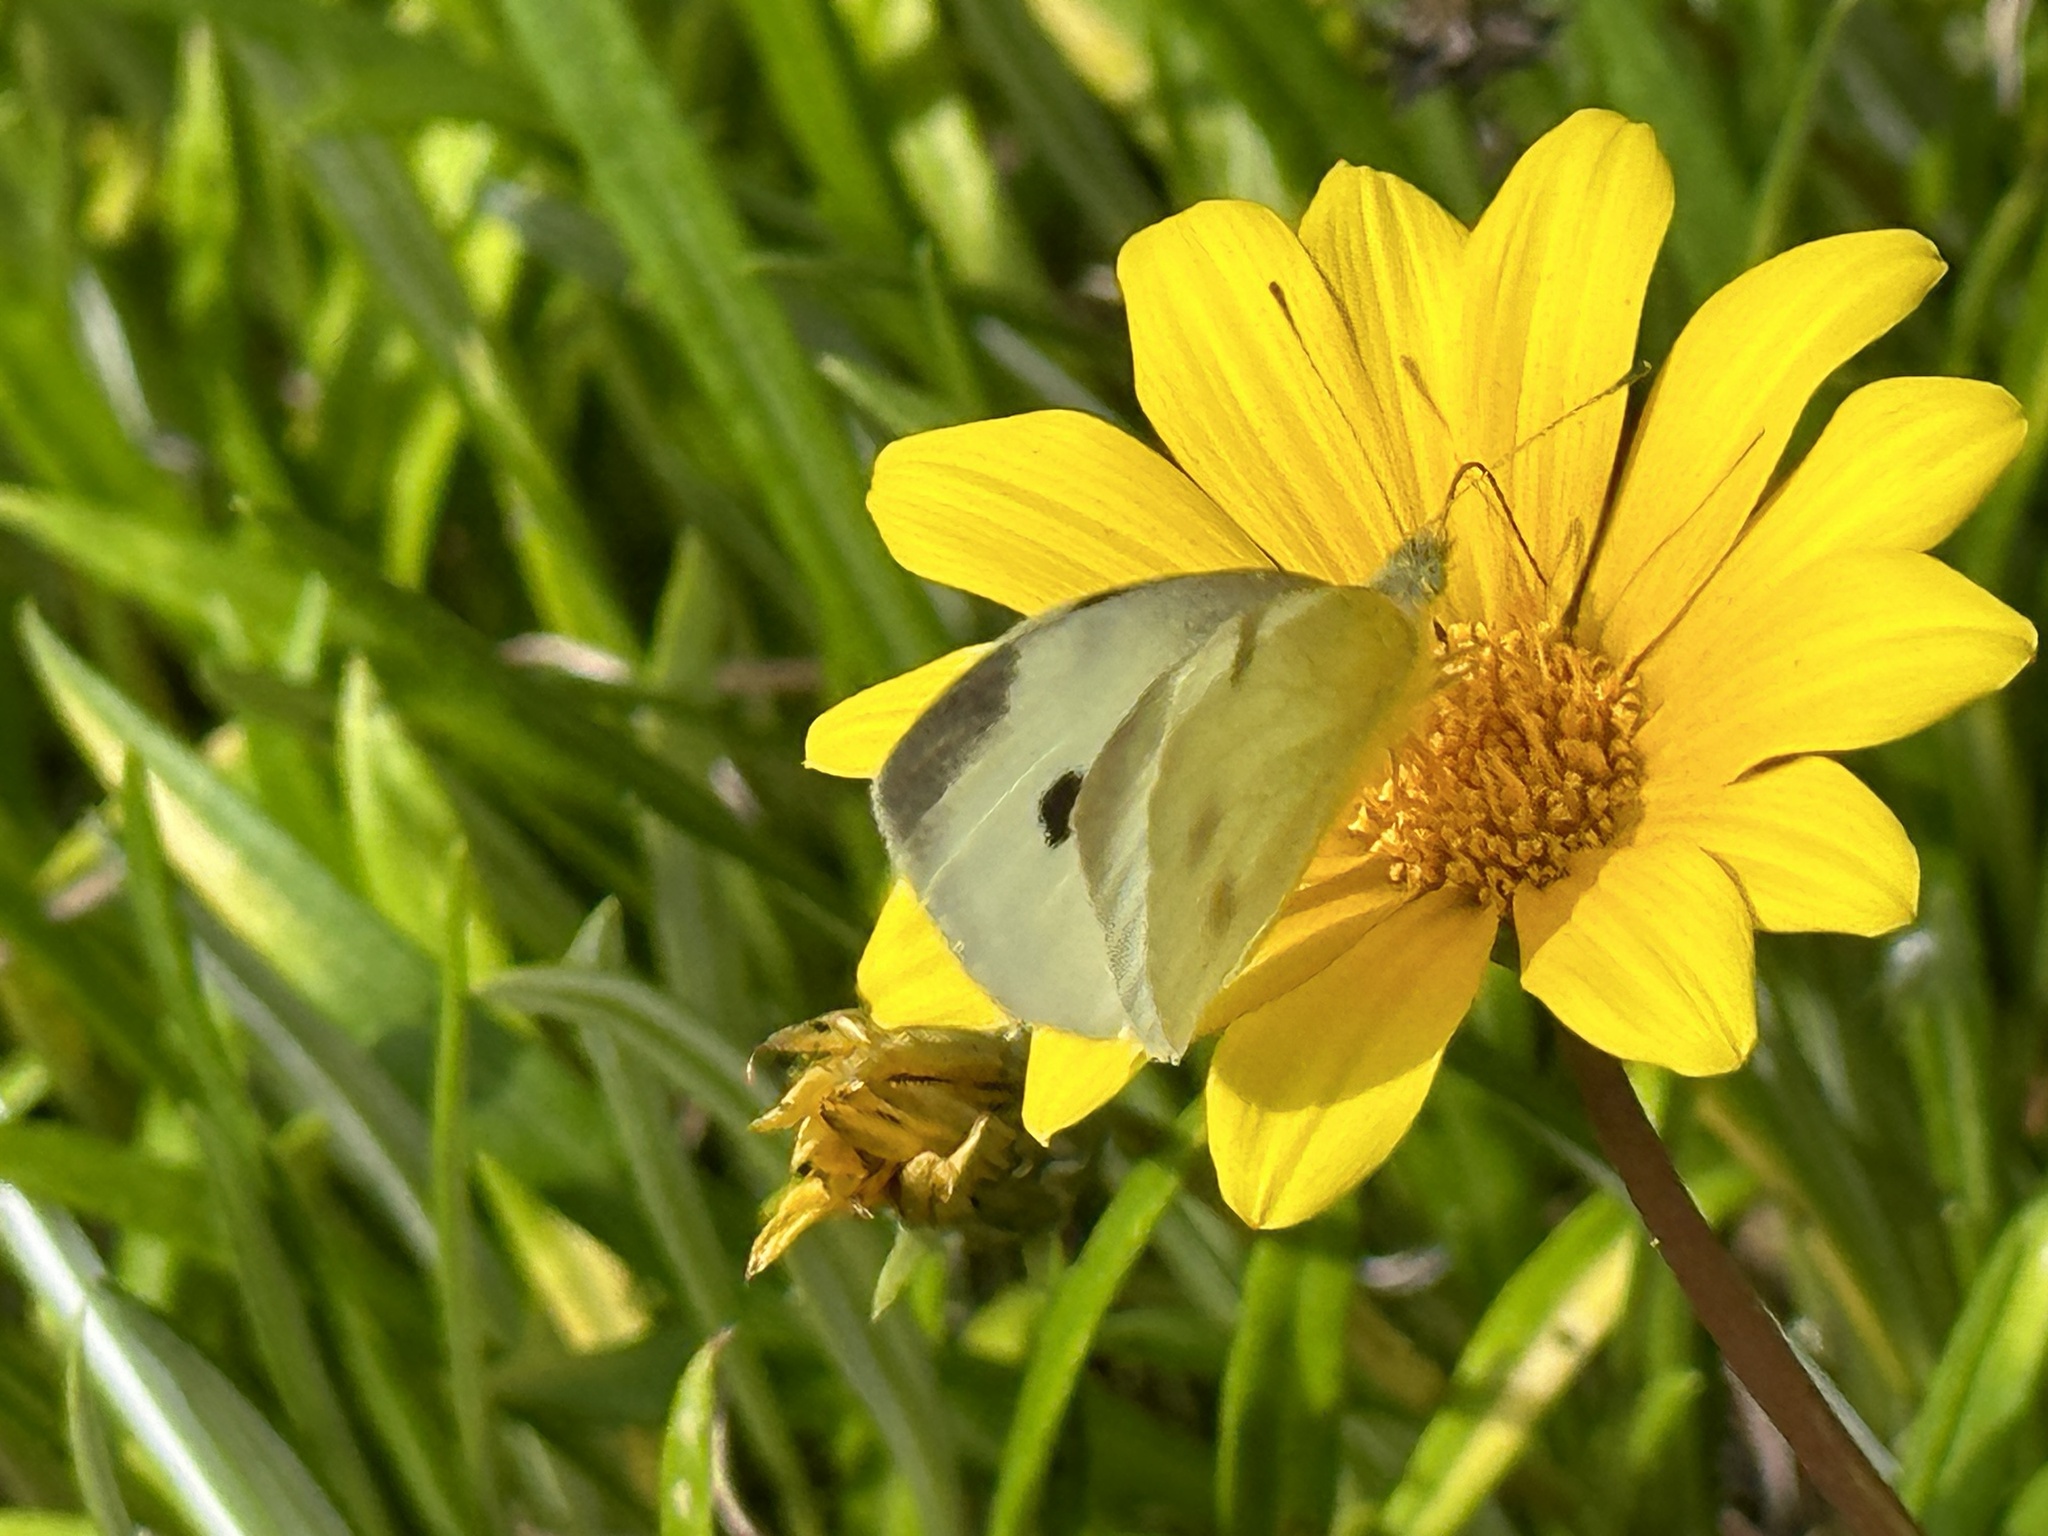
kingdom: Animalia
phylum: Arthropoda
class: Insecta
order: Lepidoptera
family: Pieridae
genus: Pieris
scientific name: Pieris rapae
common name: Small white
